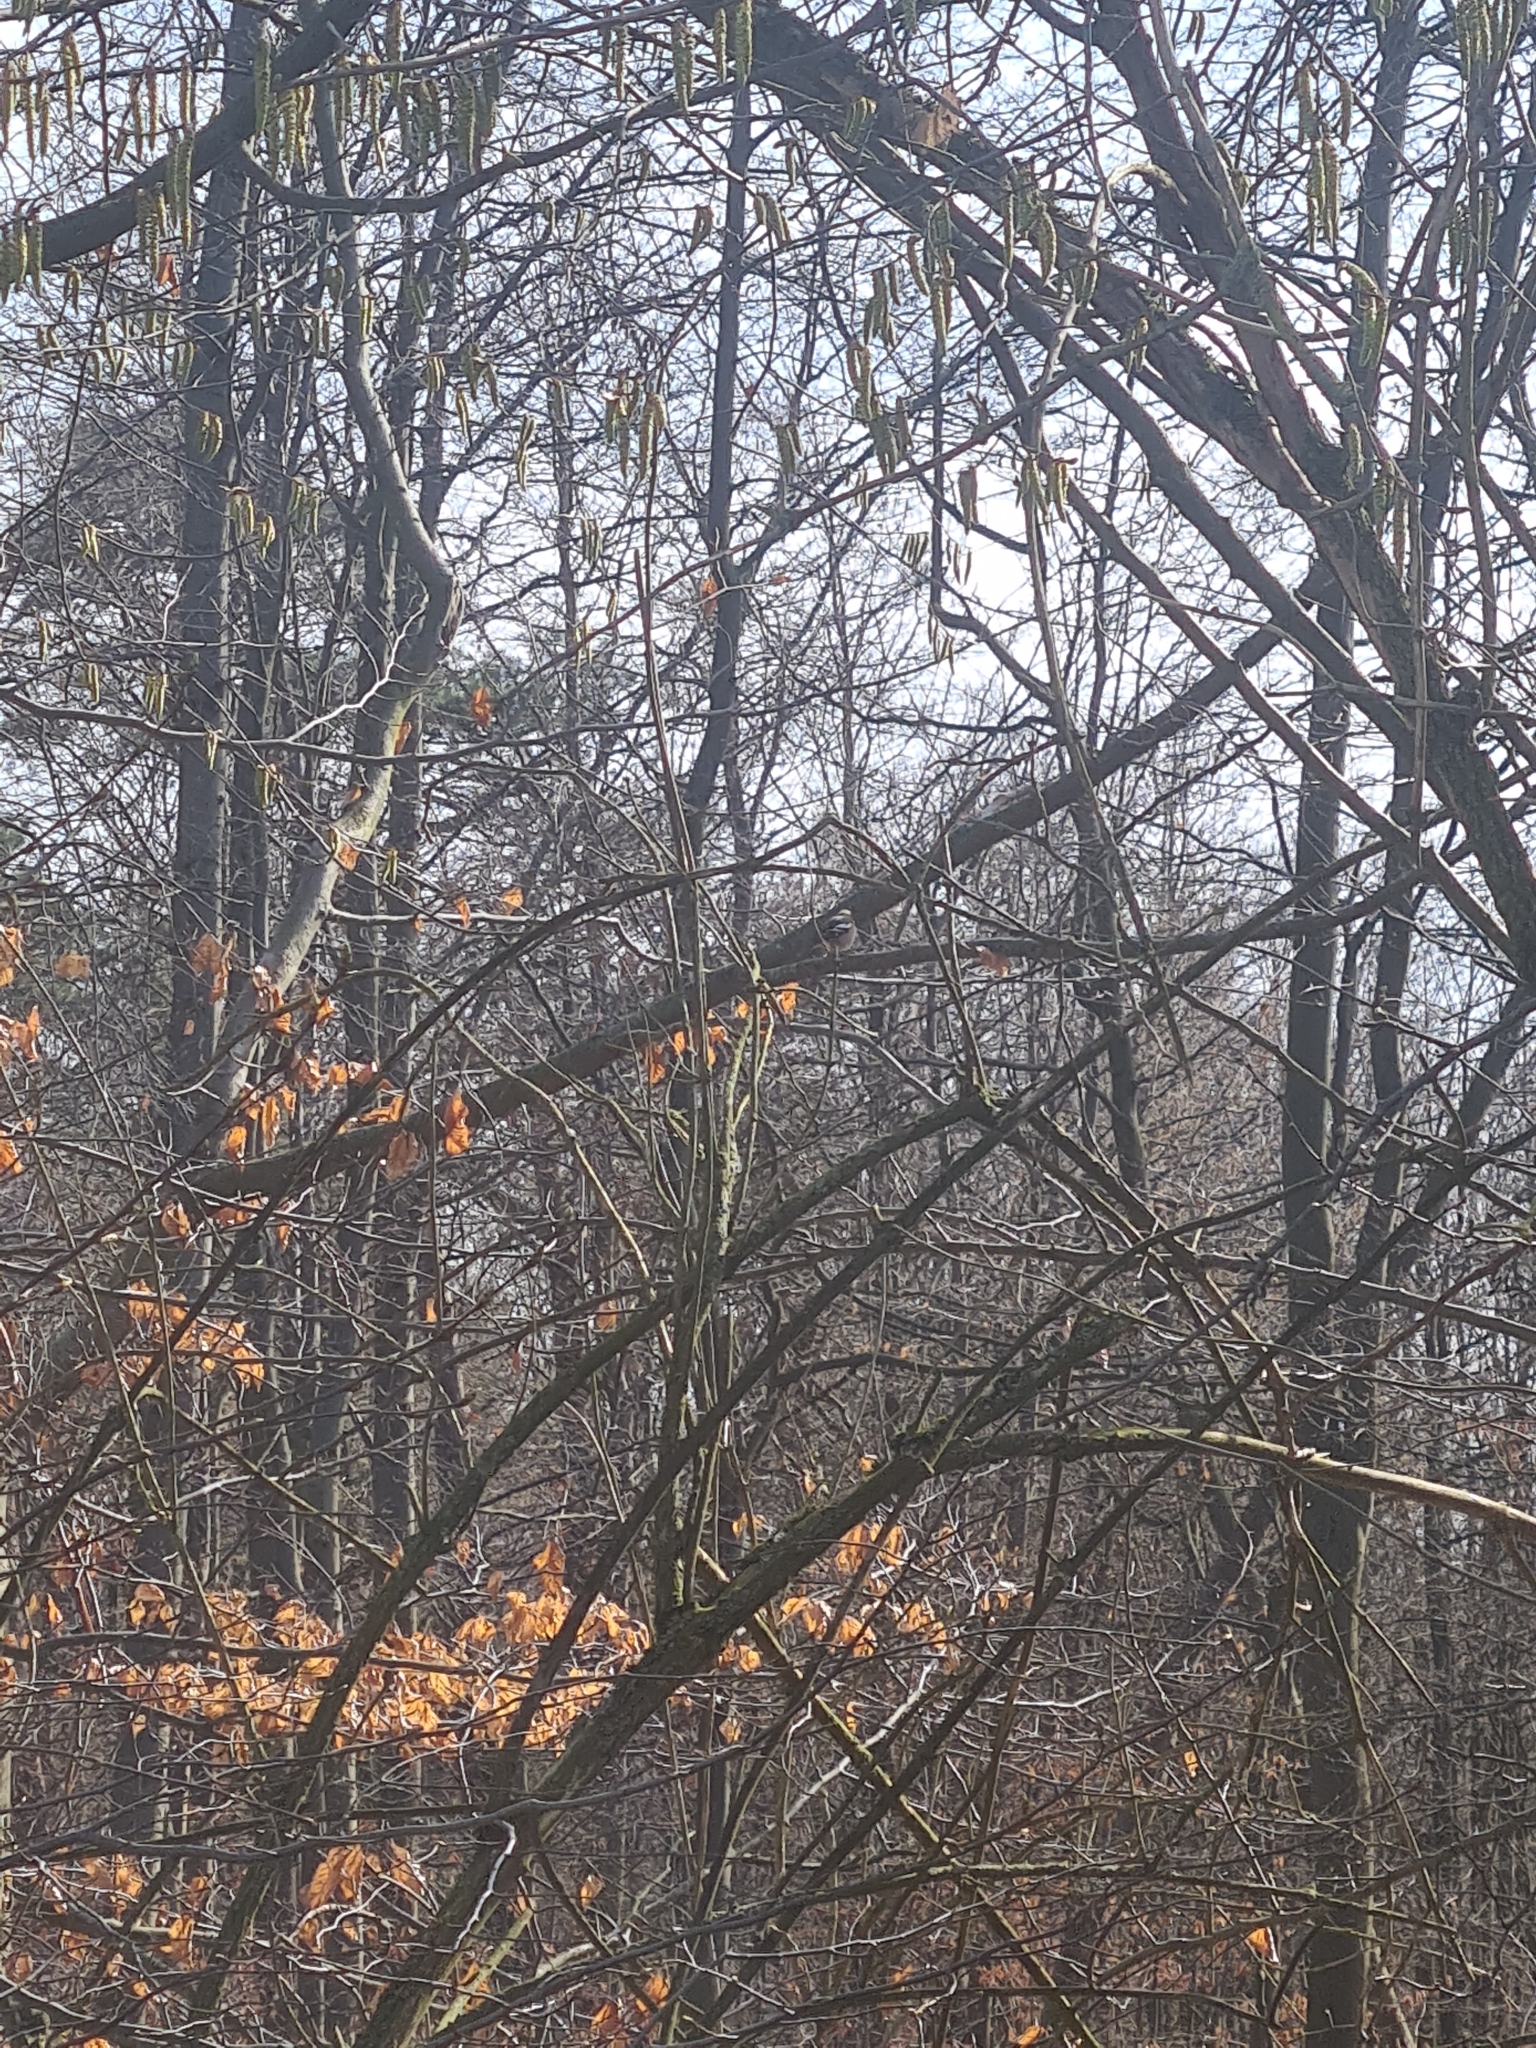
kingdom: Animalia
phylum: Chordata
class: Aves
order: Passeriformes
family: Fringillidae
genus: Fringilla
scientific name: Fringilla coelebs
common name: Common chaffinch
